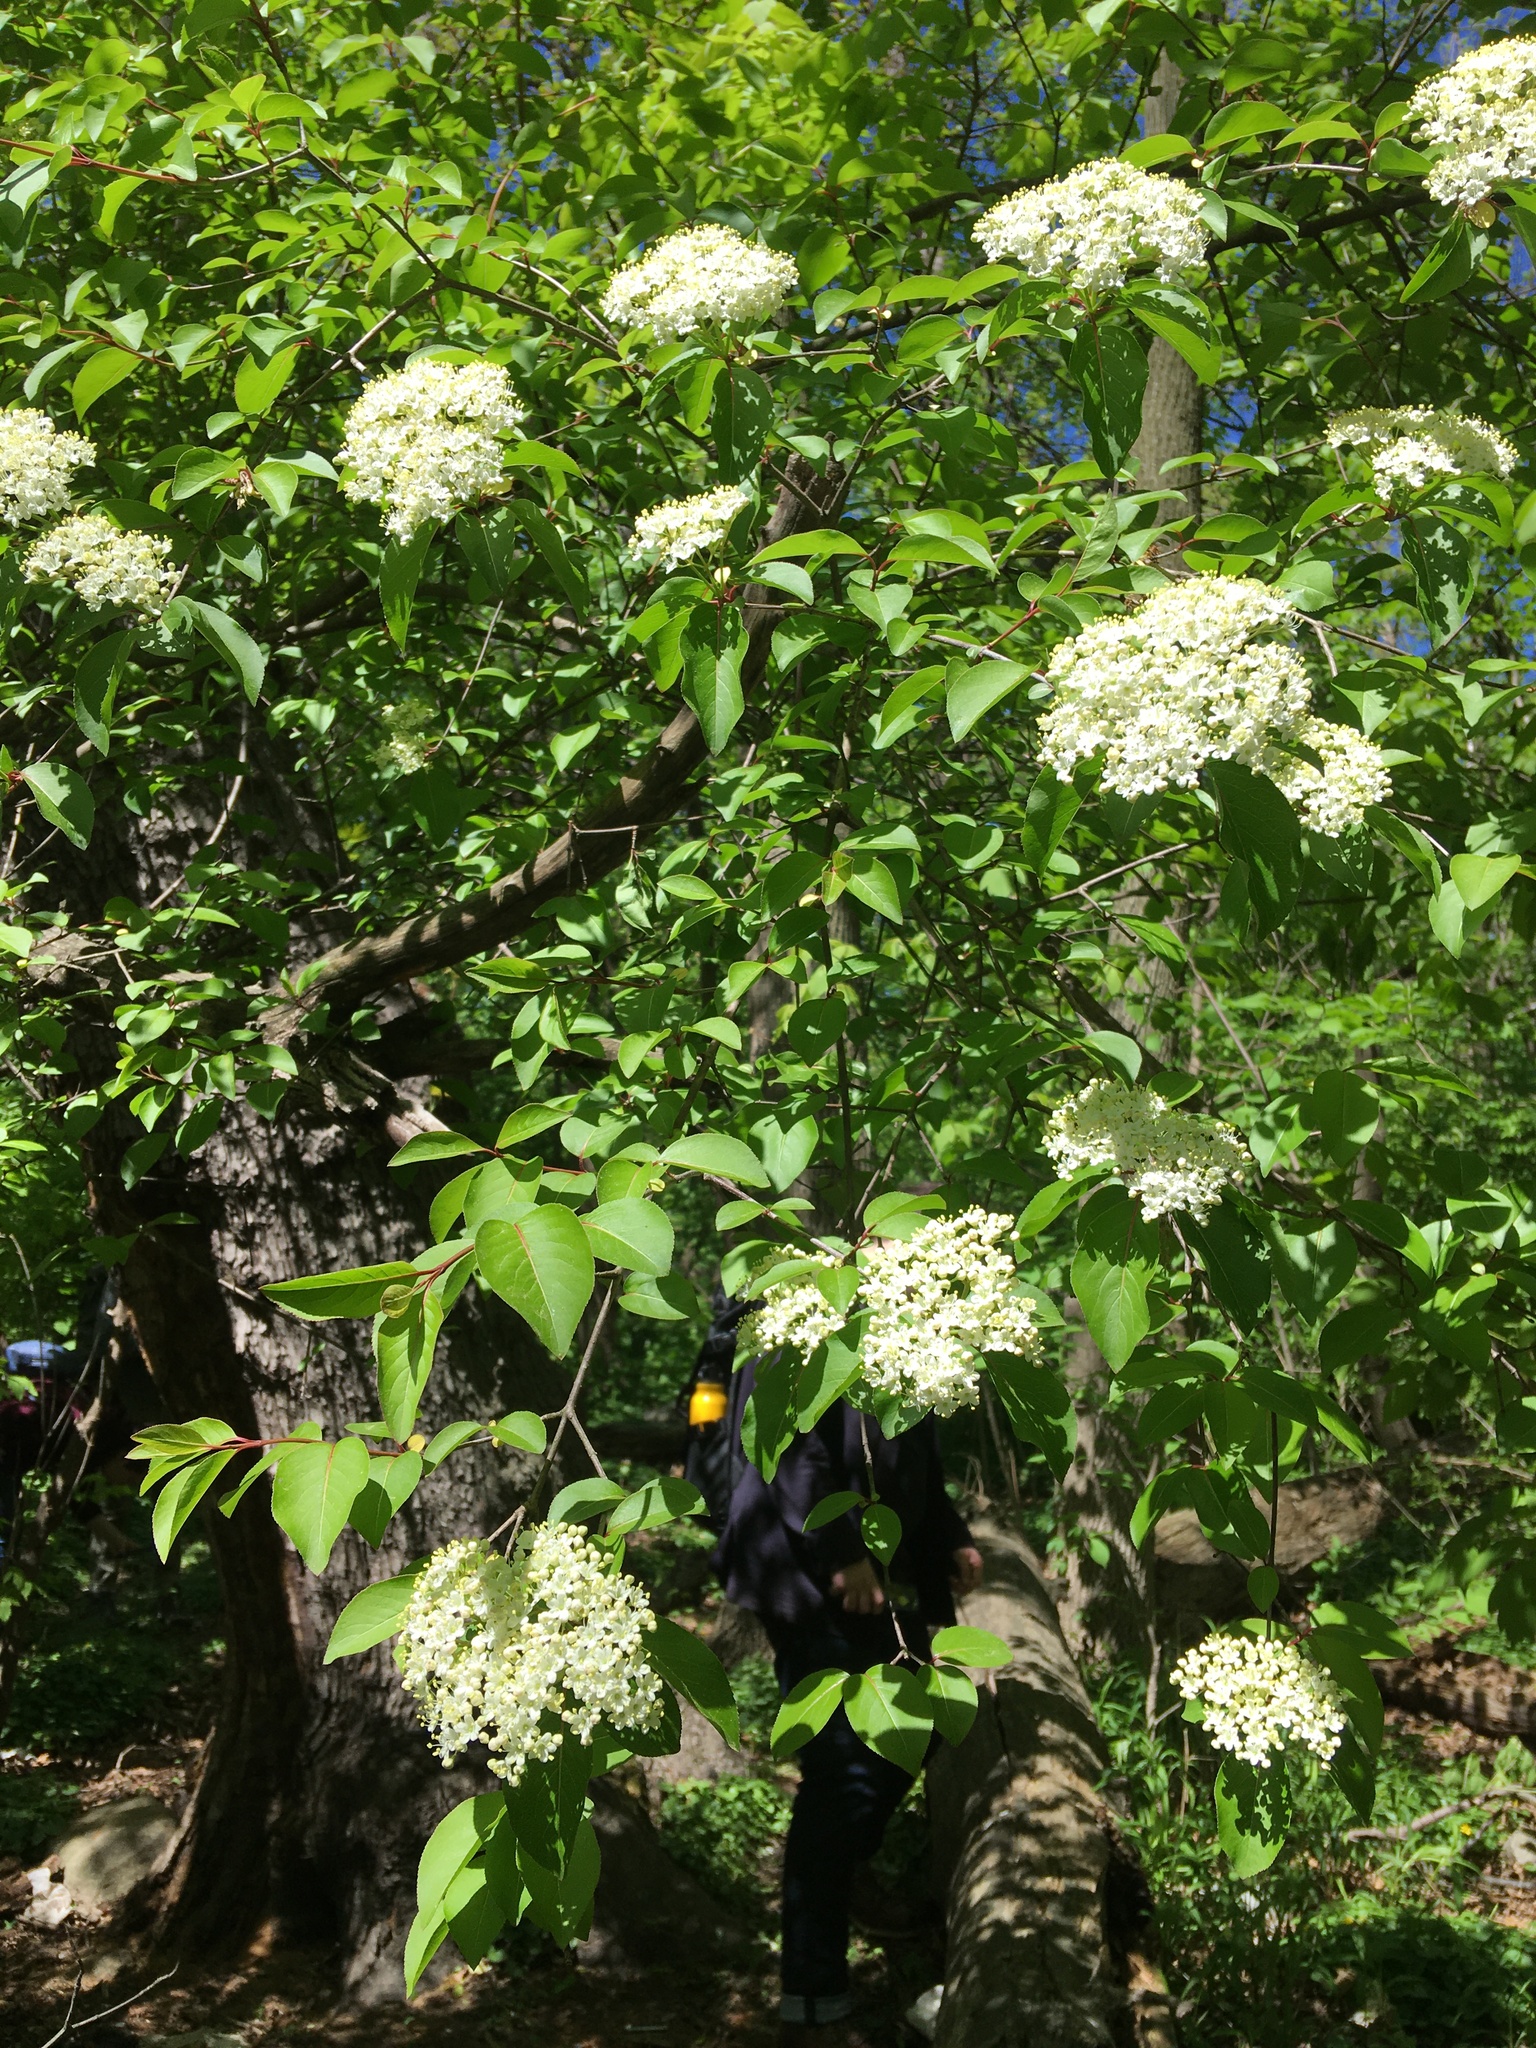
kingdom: Plantae
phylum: Tracheophyta
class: Magnoliopsida
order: Dipsacales
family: Viburnaceae
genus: Viburnum
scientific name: Viburnum prunifolium
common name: Black haw
